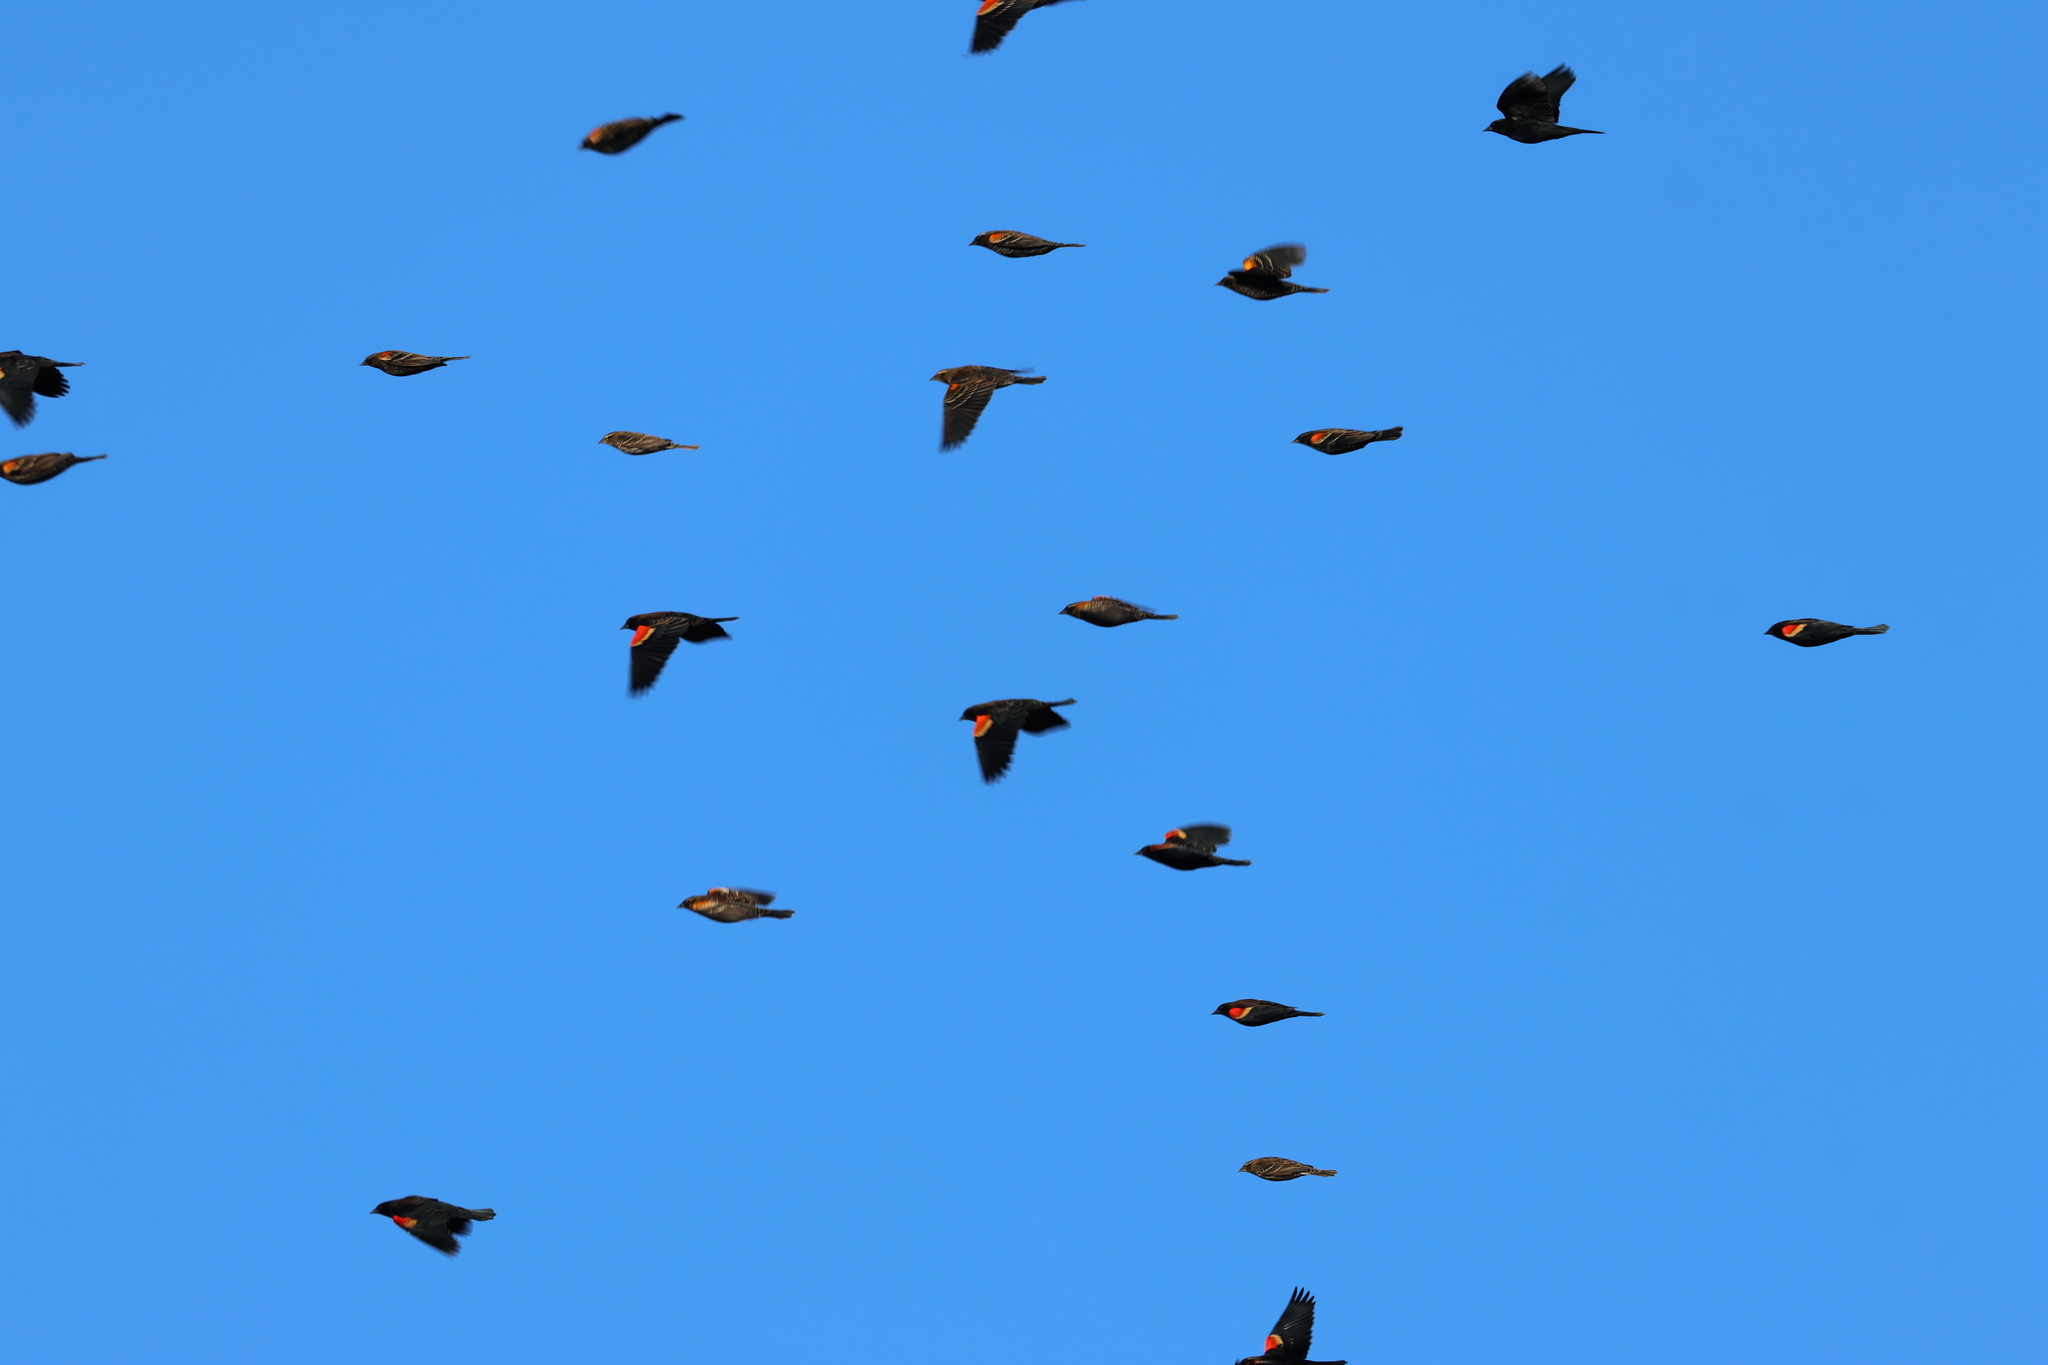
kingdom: Animalia
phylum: Chordata
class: Aves
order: Passeriformes
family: Icteridae
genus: Agelaius
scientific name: Agelaius phoeniceus
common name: Red-winged blackbird
